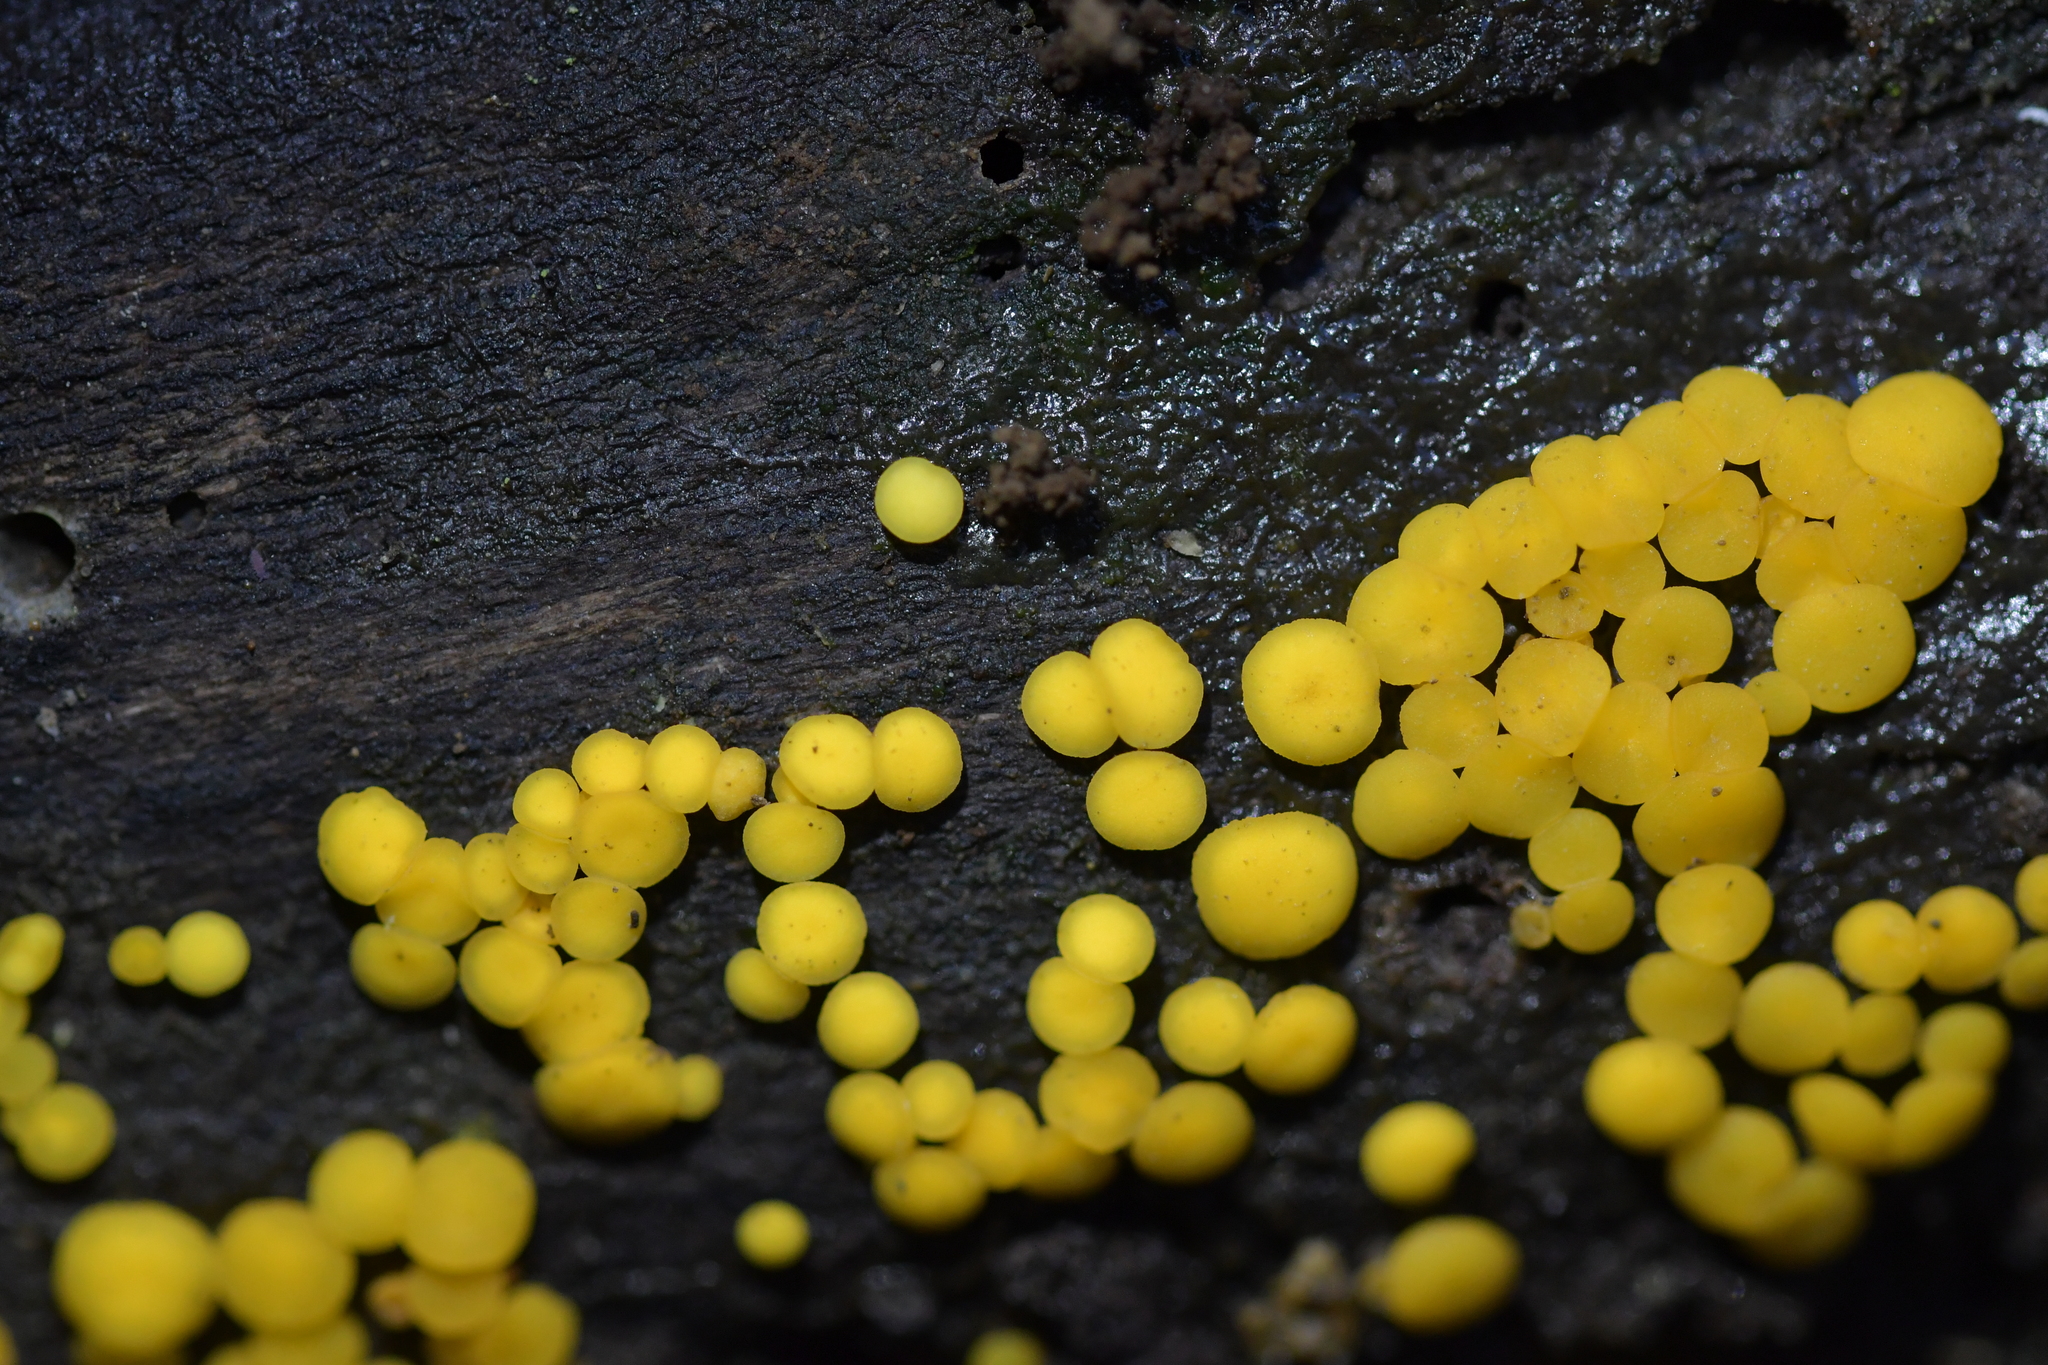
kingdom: Fungi
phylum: Ascomycota
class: Leotiomycetes
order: Helotiales
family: Pezizellaceae
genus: Calycina
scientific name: Calycina citrina
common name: Yellow fairy cups
